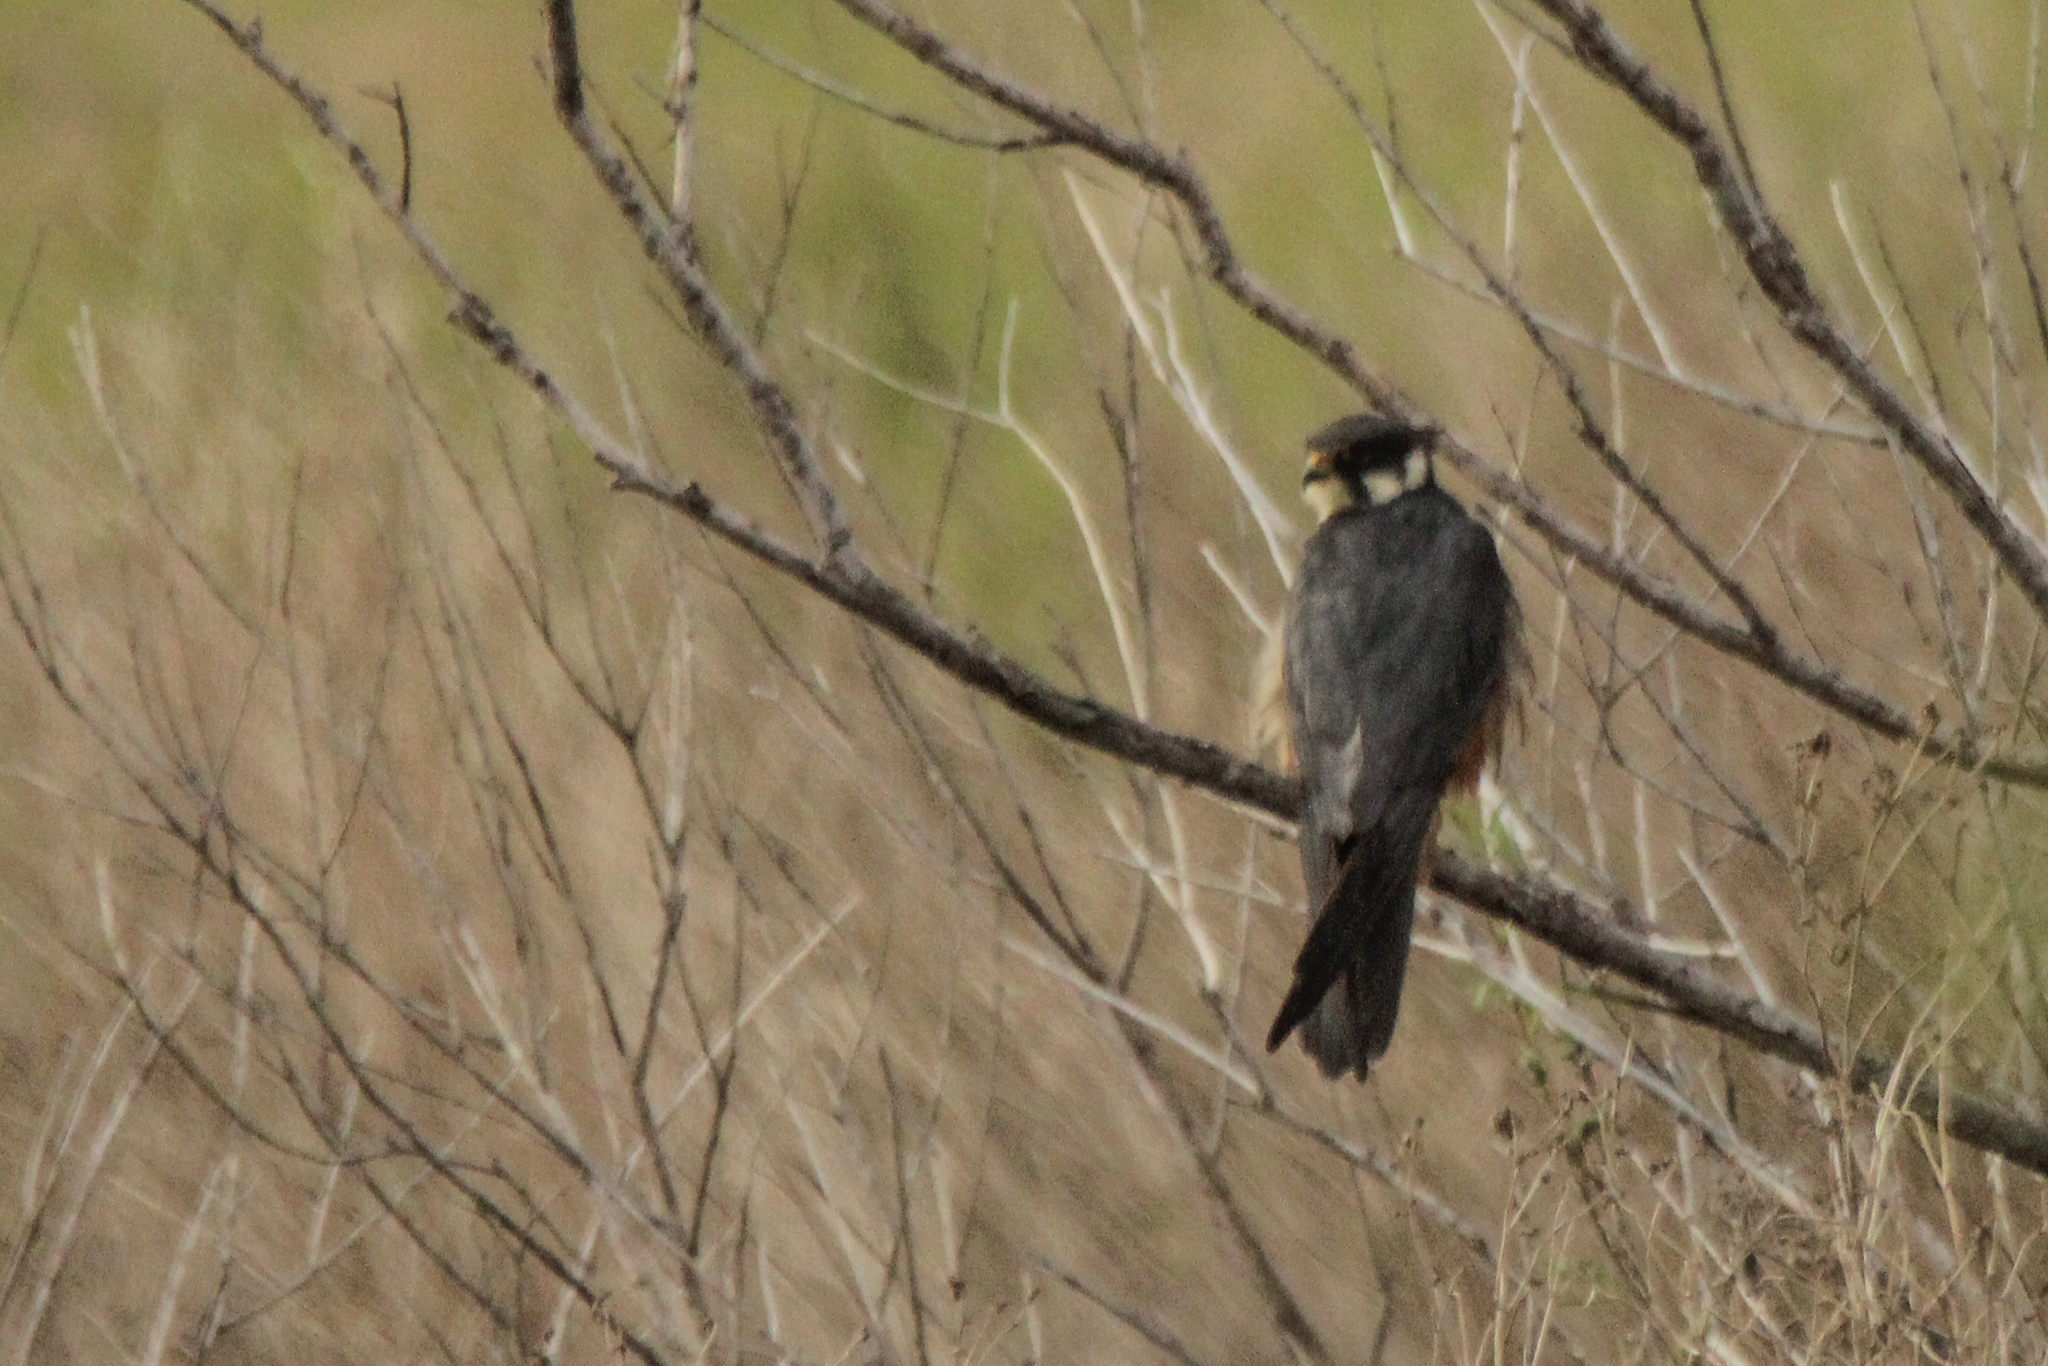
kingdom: Animalia
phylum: Chordata
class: Aves
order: Falconiformes
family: Falconidae
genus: Falco
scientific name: Falco subbuteo
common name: Eurasian hobby
